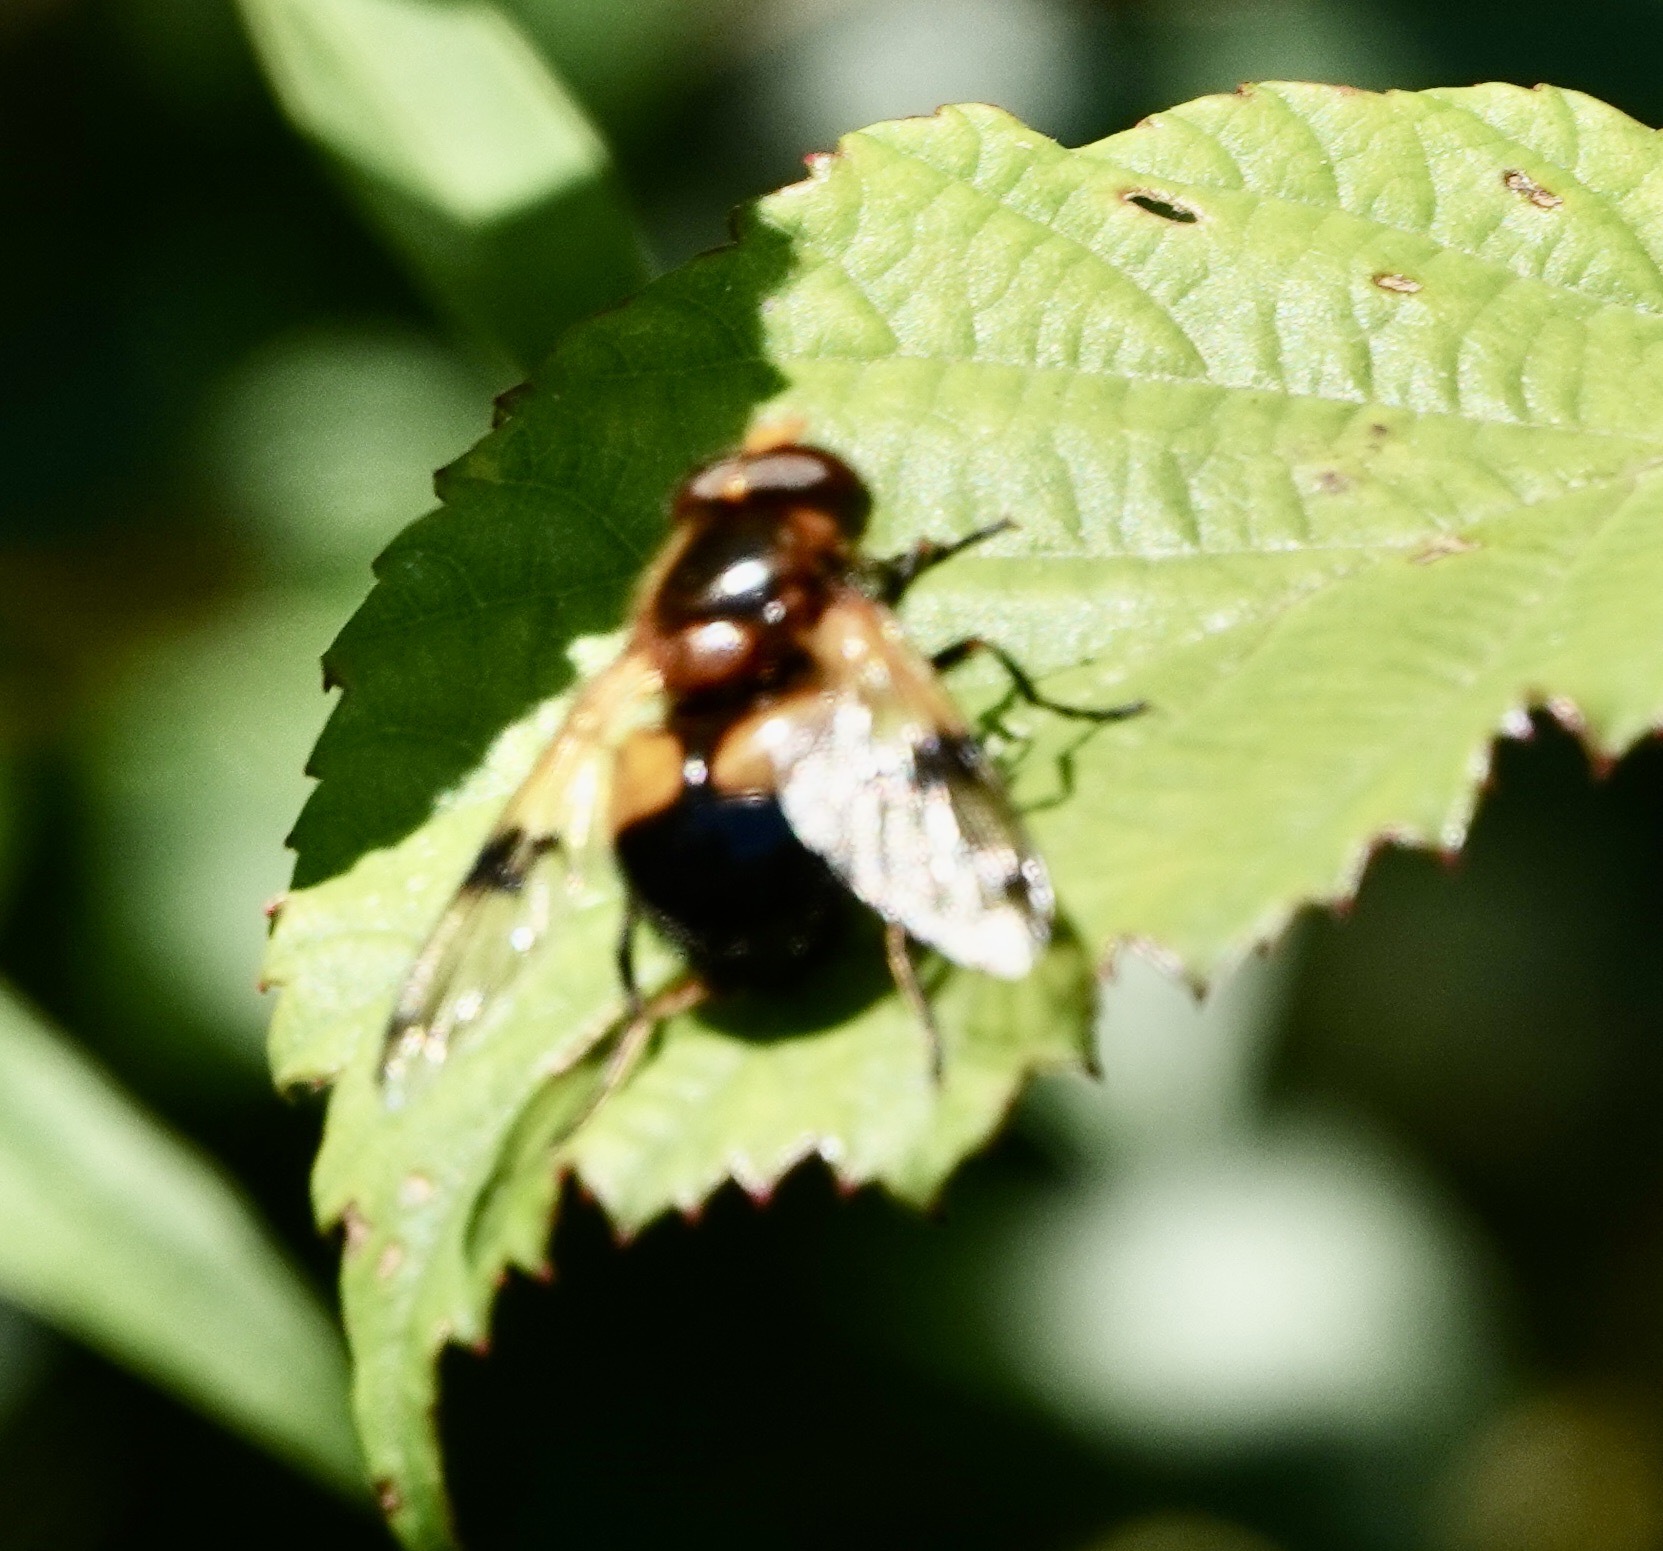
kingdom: Animalia
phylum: Arthropoda
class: Insecta
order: Diptera
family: Syrphidae
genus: Volucella
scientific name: Volucella inflata
